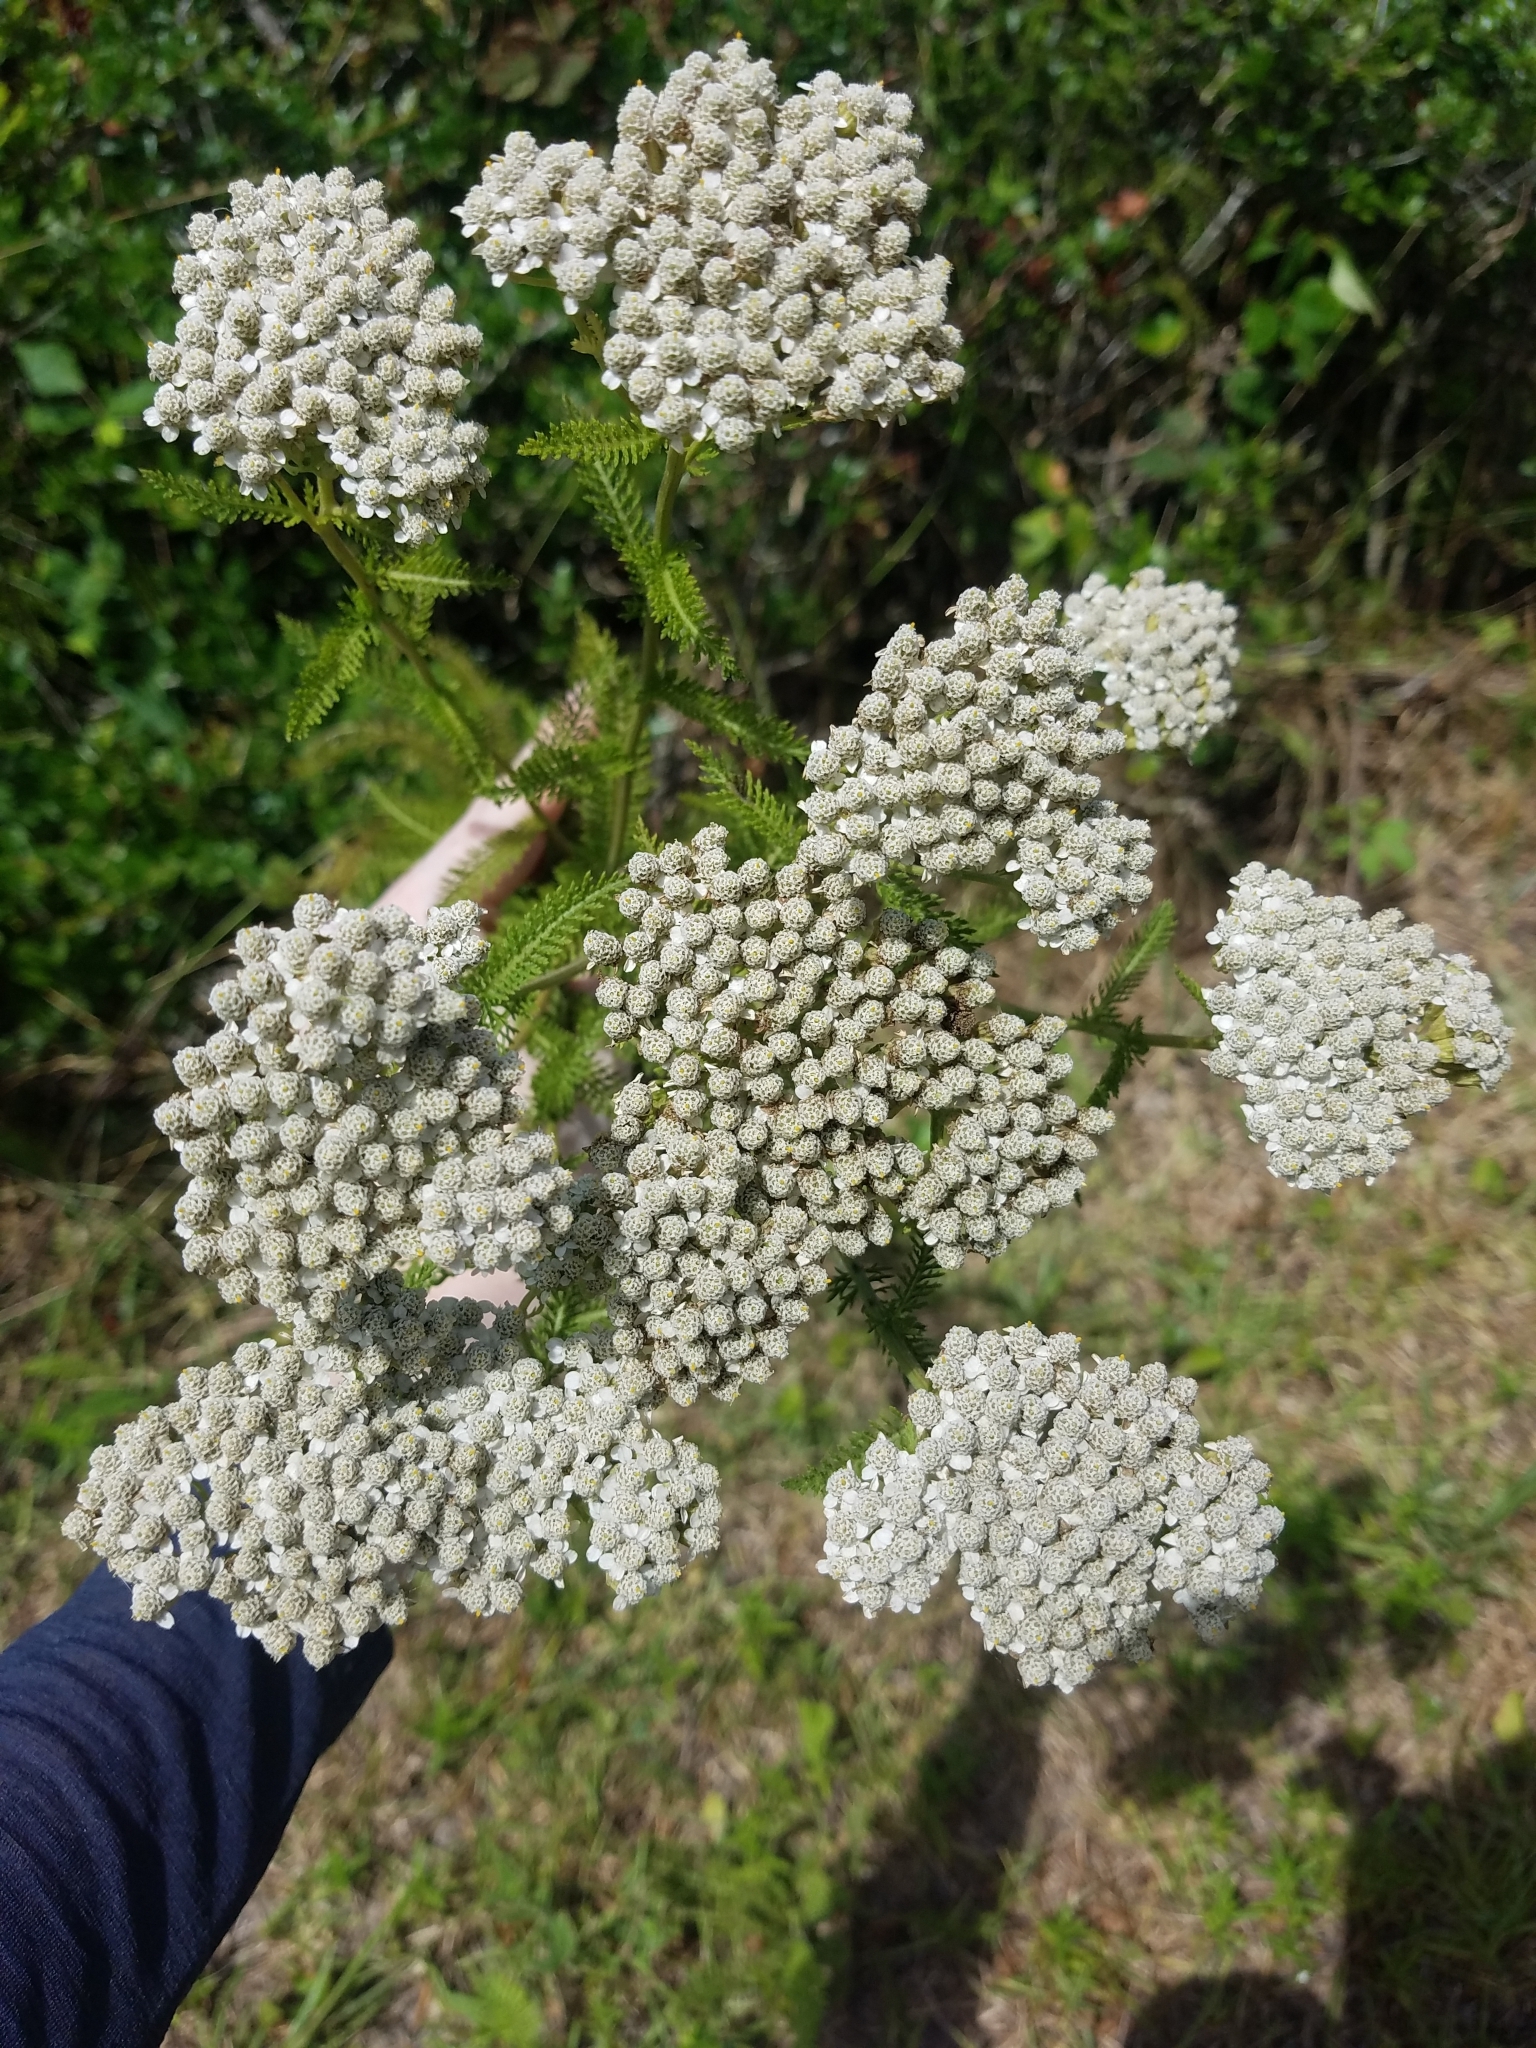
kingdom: Plantae
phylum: Tracheophyta
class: Magnoliopsida
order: Asterales
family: Asteraceae
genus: Achillea
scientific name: Achillea millefolium
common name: Yarrow
